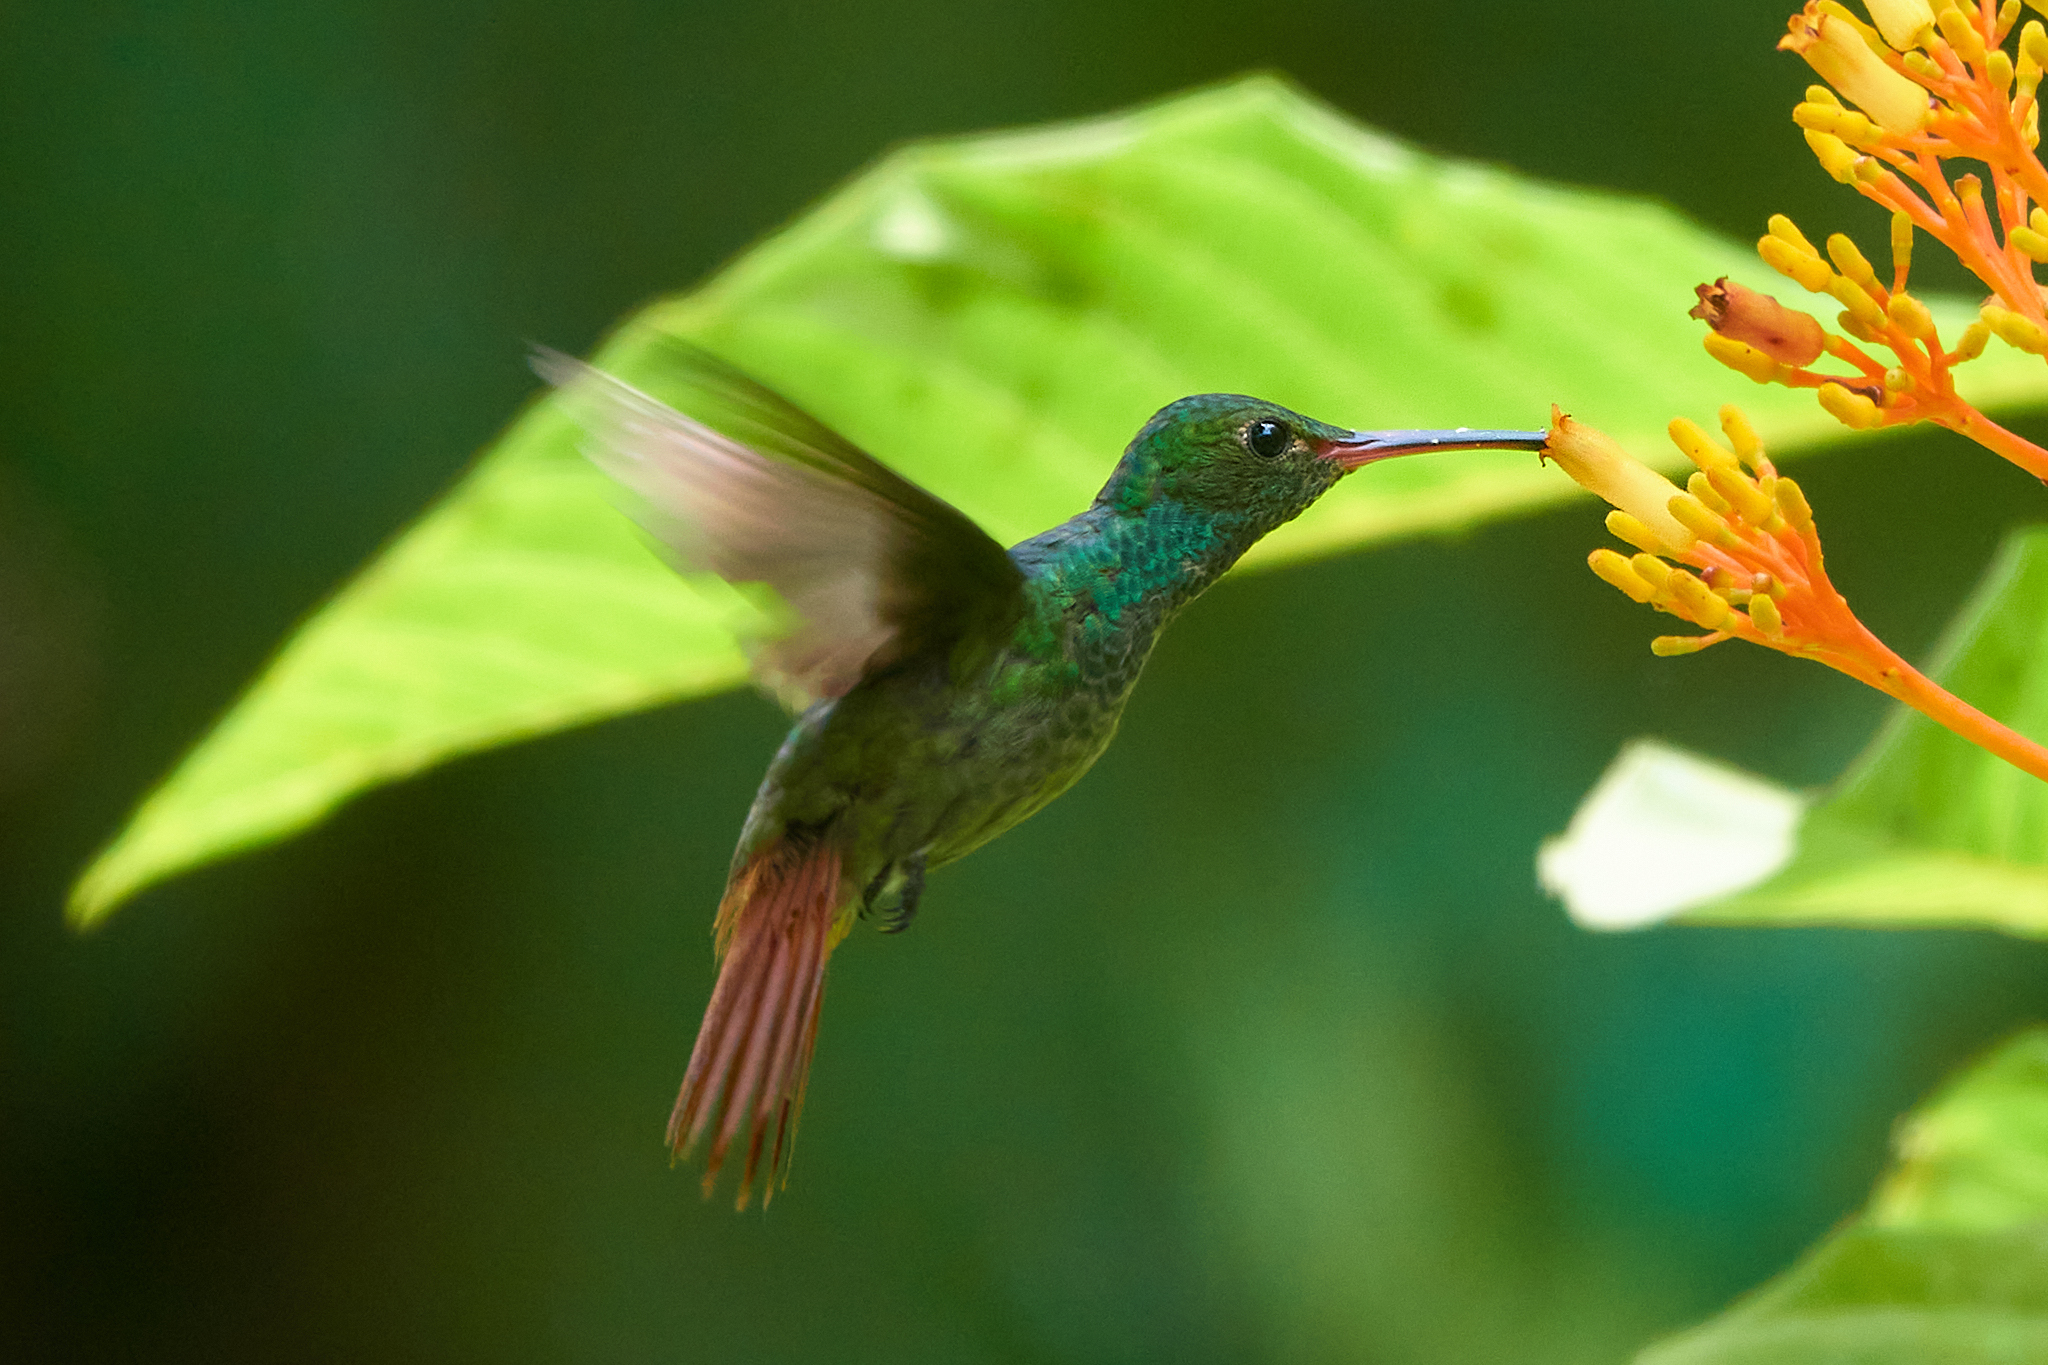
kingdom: Animalia
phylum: Chordata
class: Aves
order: Apodiformes
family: Trochilidae
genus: Amazilia
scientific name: Amazilia tzacatl
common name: Rufous-tailed hummingbird
